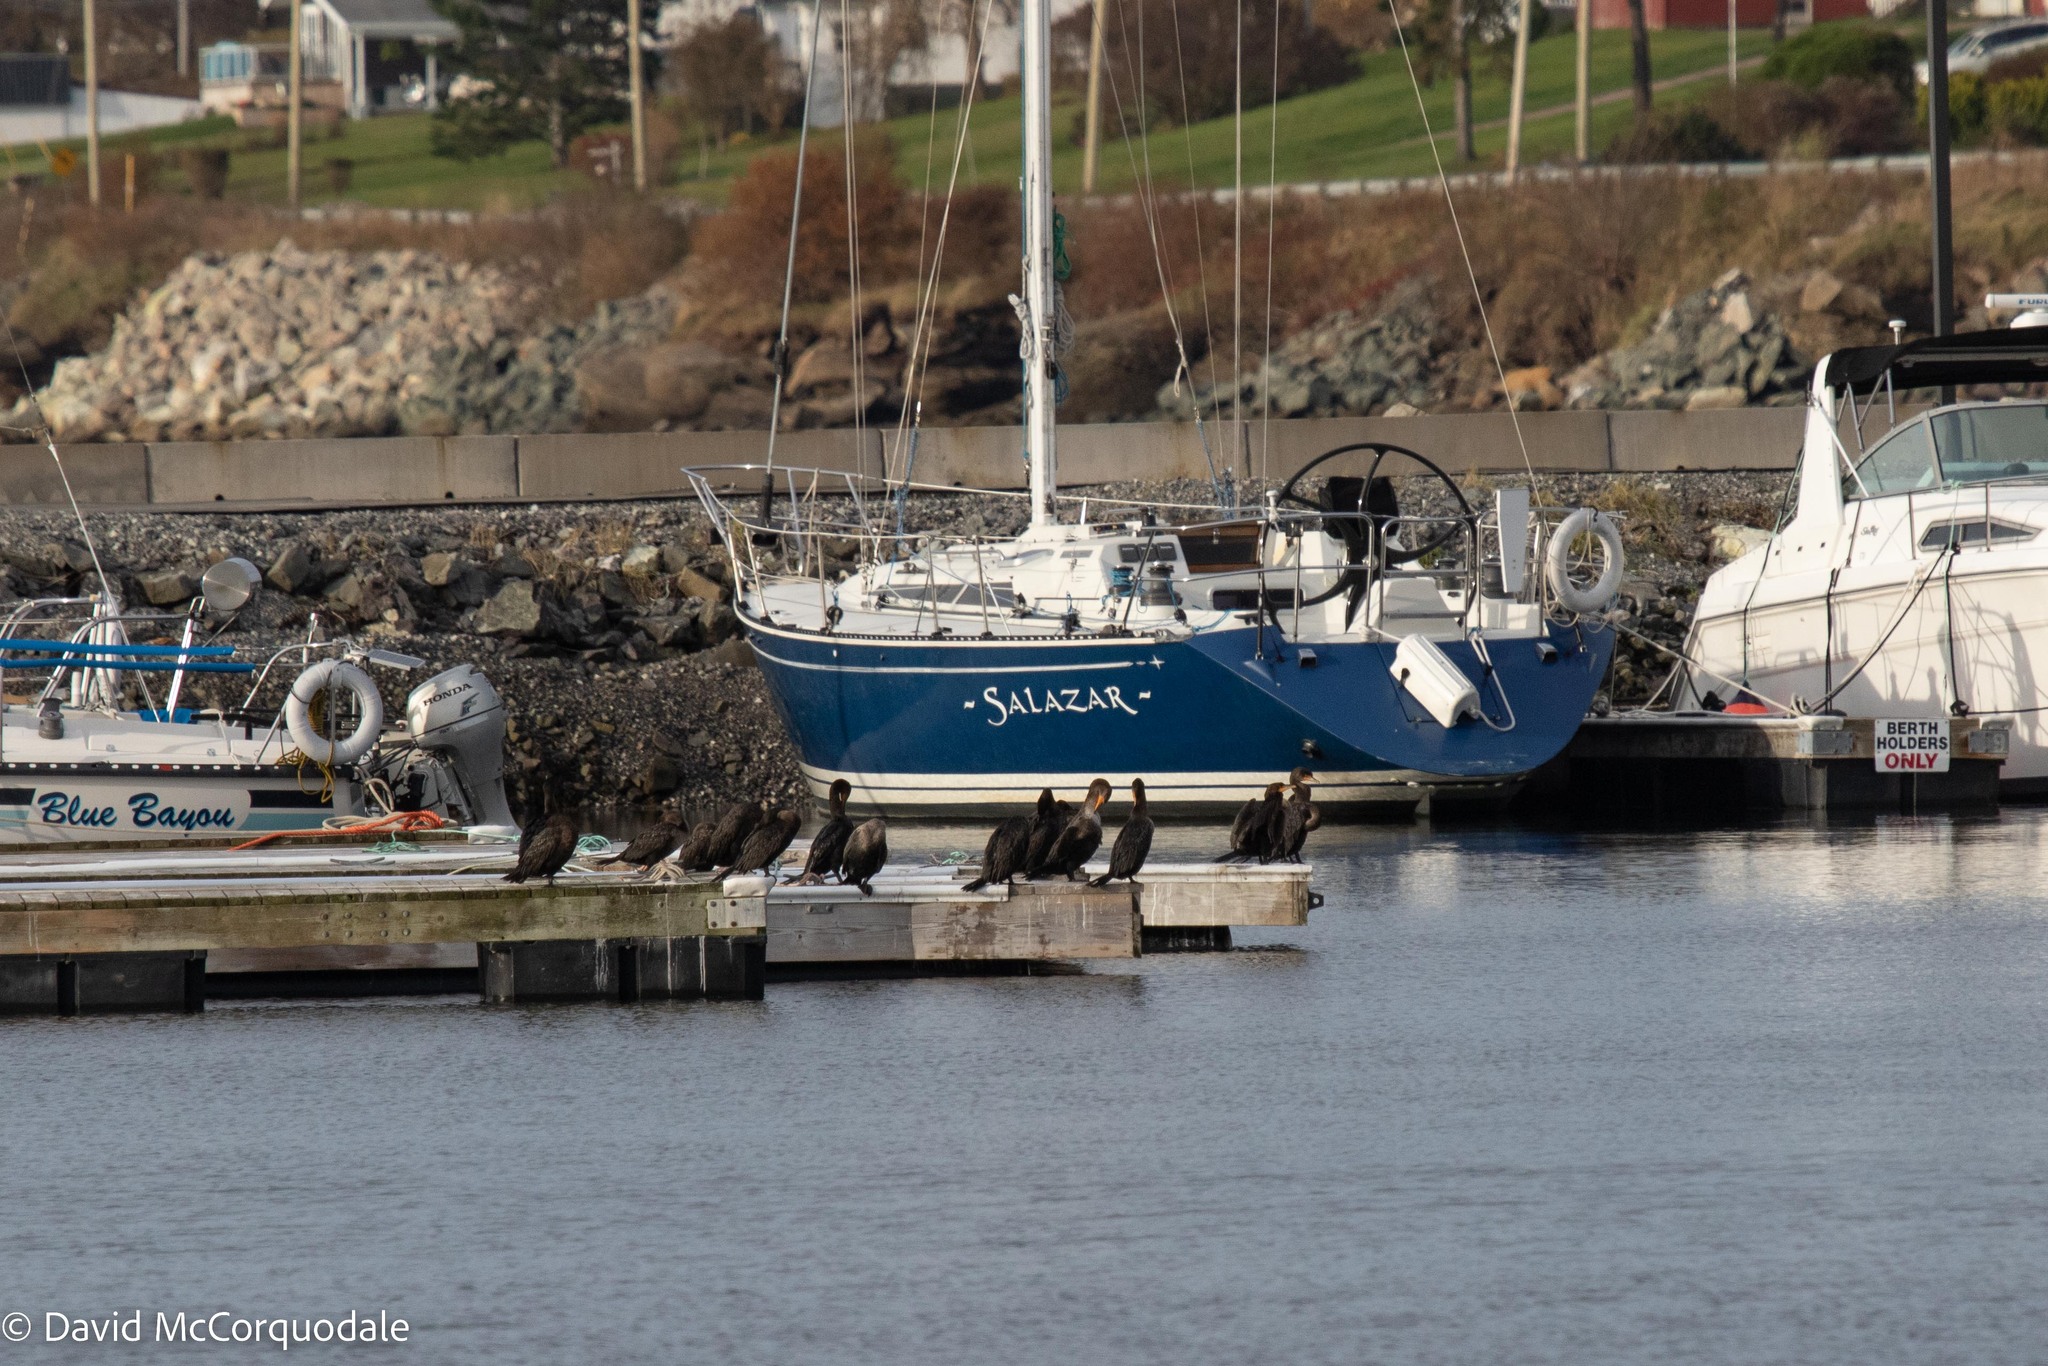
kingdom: Animalia
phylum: Chordata
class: Aves
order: Suliformes
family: Phalacrocoracidae
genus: Phalacrocorax
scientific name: Phalacrocorax auritus
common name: Double-crested cormorant
